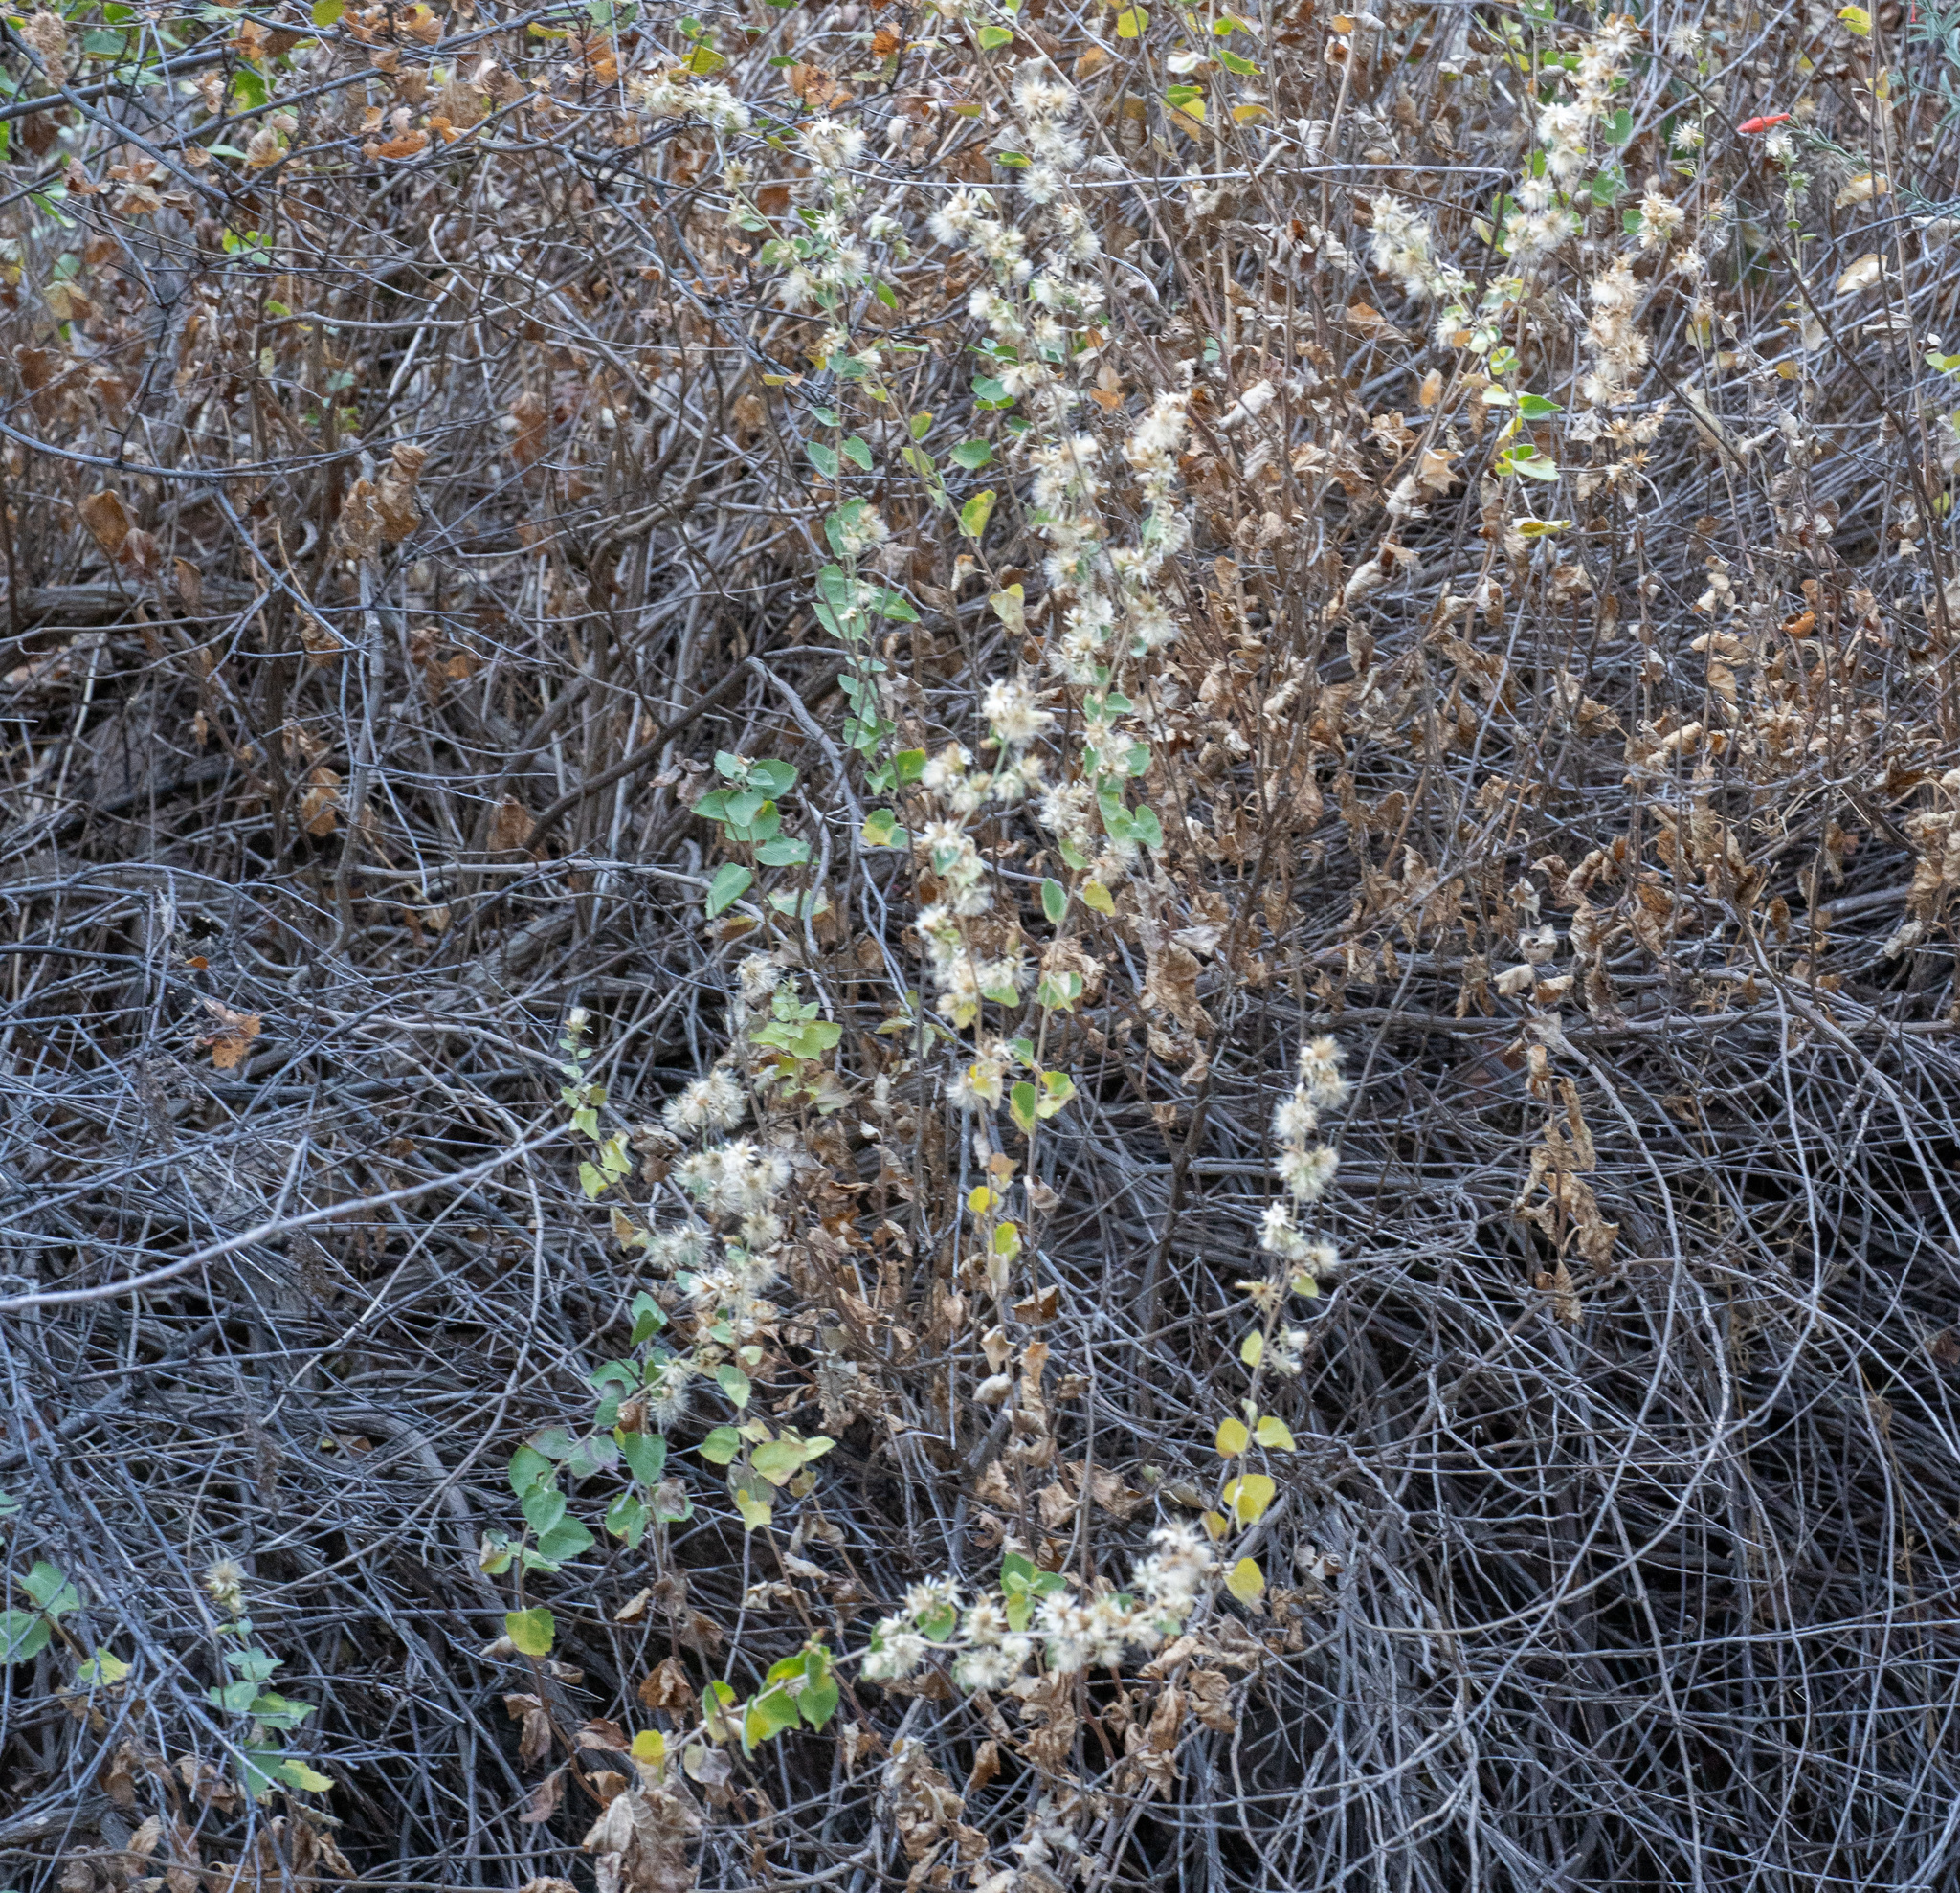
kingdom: Plantae
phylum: Tracheophyta
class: Magnoliopsida
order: Asterales
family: Asteraceae
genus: Brickellia
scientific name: Brickellia californica
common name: California brickellbush
